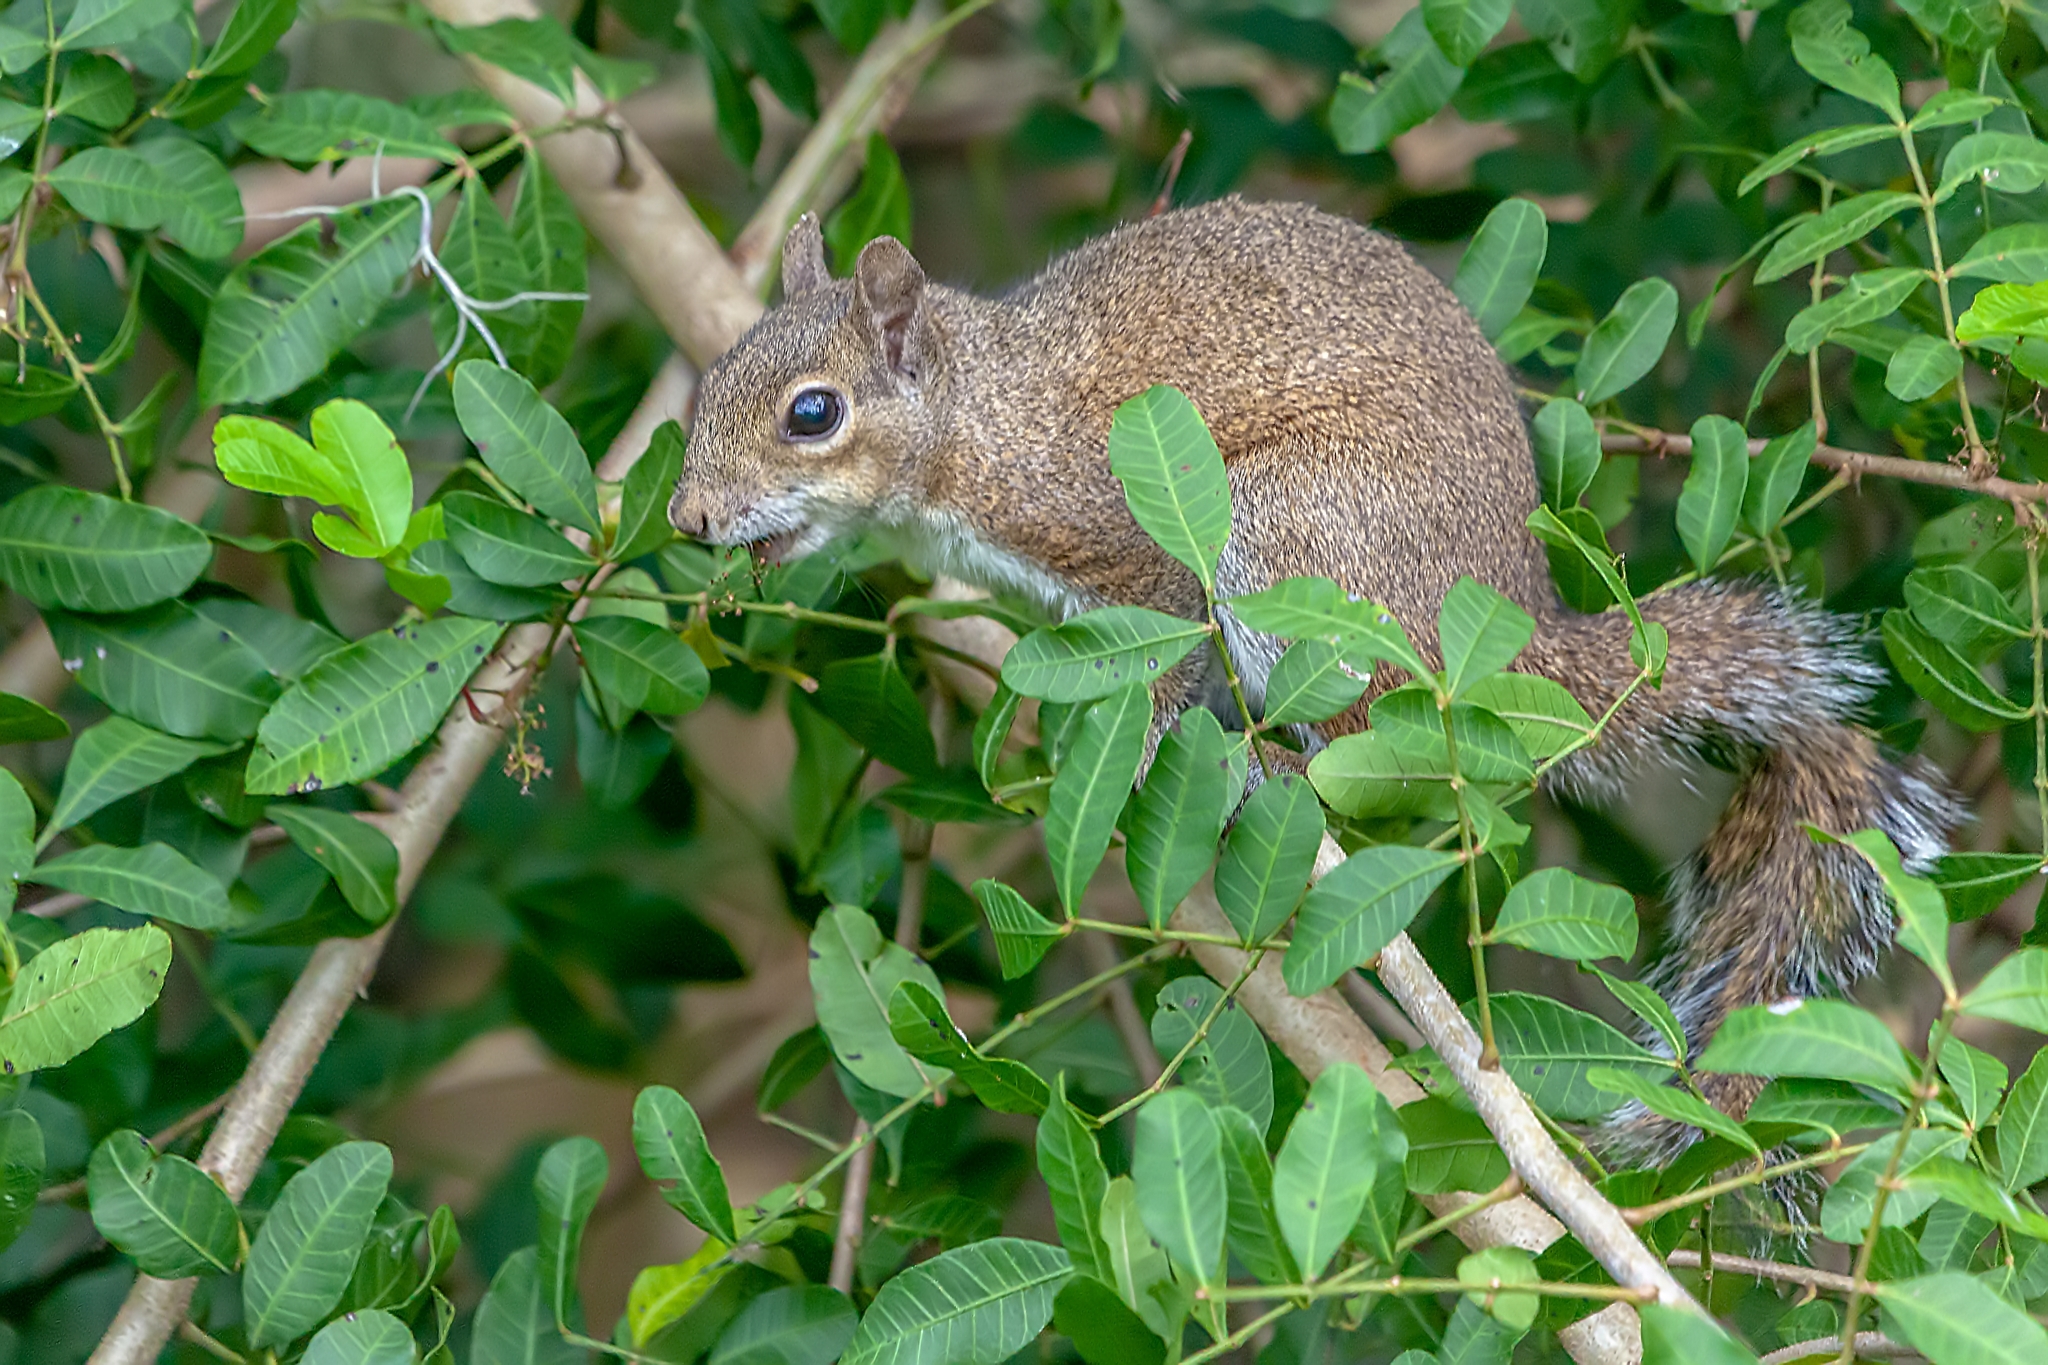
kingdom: Animalia
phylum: Chordata
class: Mammalia
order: Rodentia
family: Sciuridae
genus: Sciurus
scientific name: Sciurus carolinensis
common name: Eastern gray squirrel
